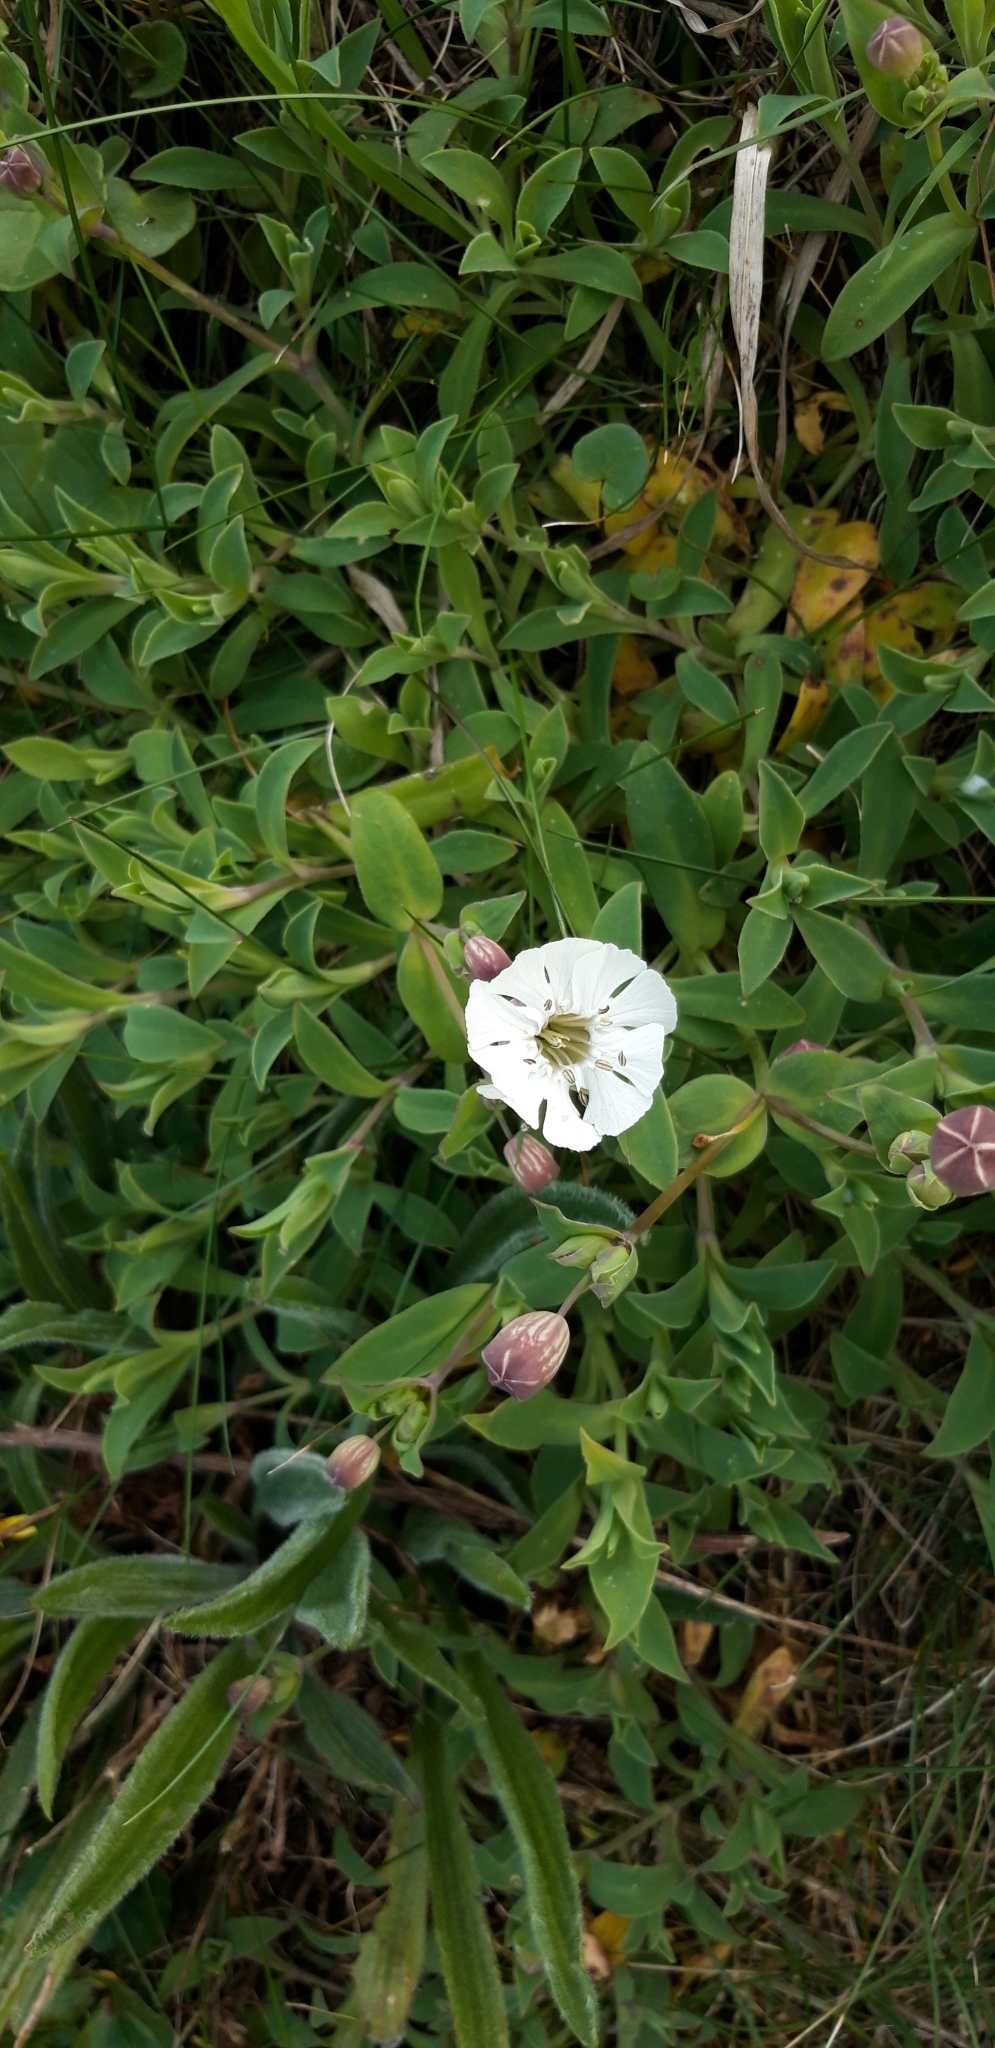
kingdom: Plantae
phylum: Tracheophyta
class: Magnoliopsida
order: Caryophyllales
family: Caryophyllaceae
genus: Silene
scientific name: Silene uniflora
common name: Sea campion
